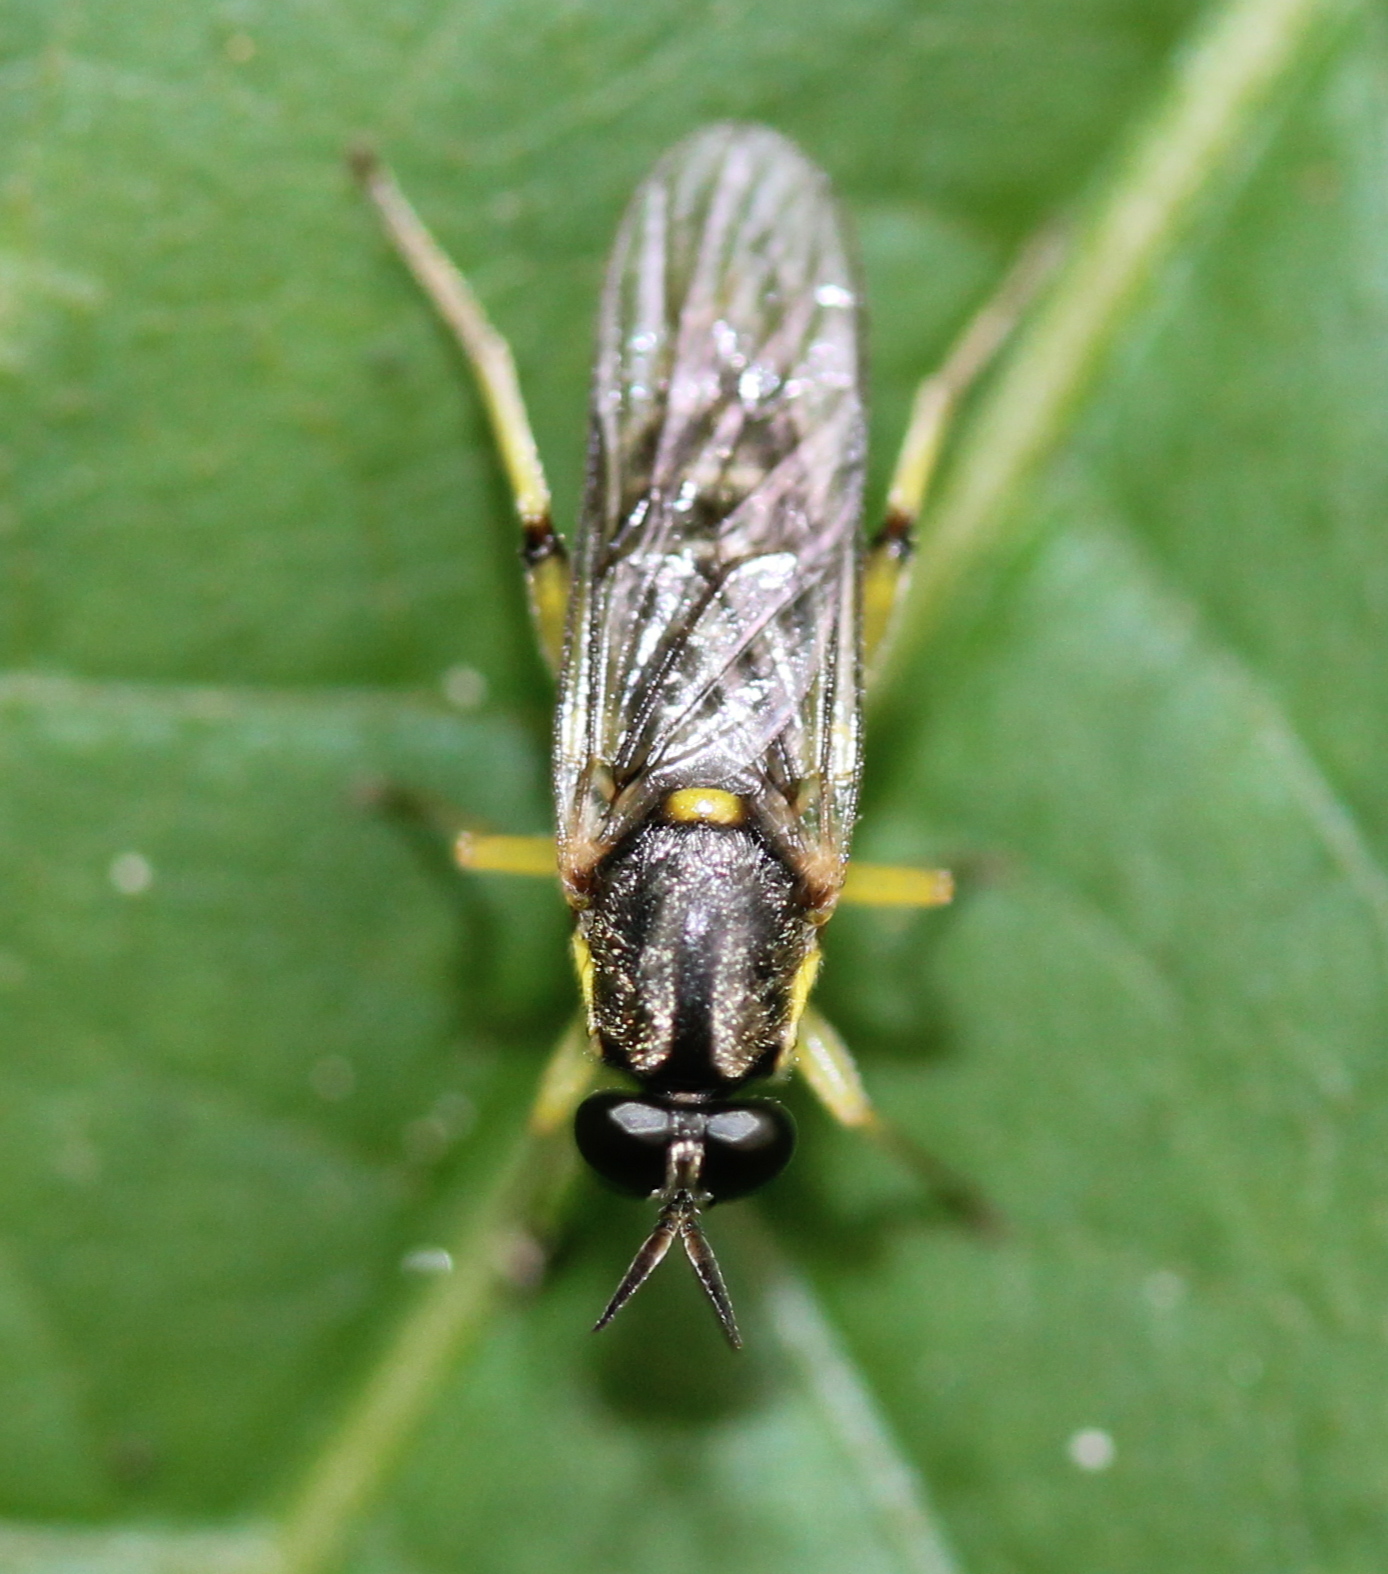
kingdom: Animalia
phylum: Arthropoda
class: Insecta
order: Diptera
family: Xylomyidae
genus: Solva
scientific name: Solva pallipes
